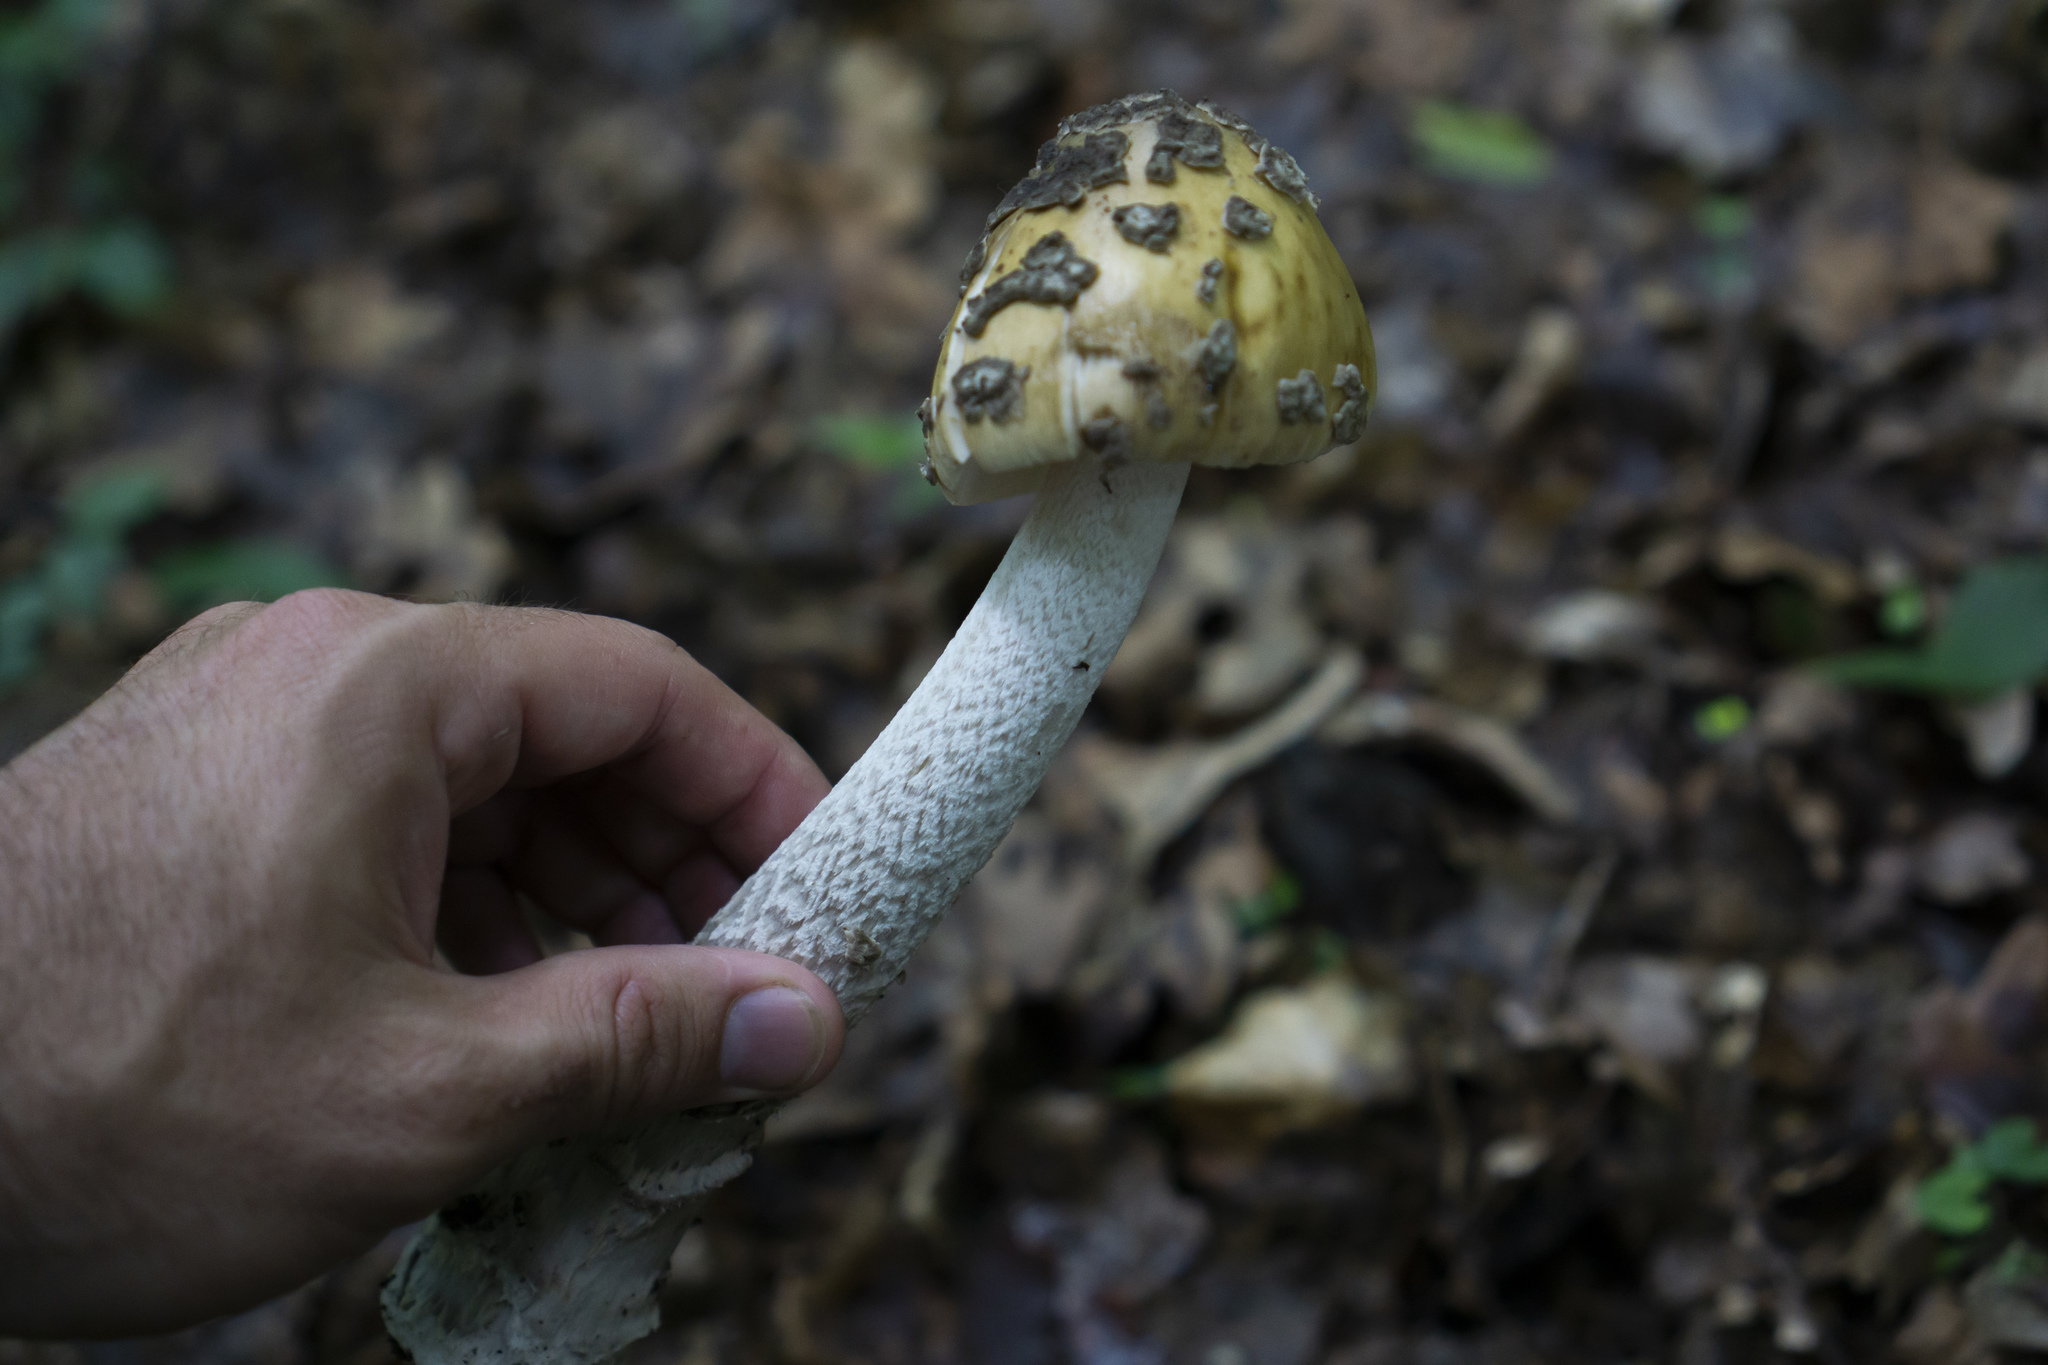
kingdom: Fungi
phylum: Basidiomycota
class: Agaricomycetes
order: Agaricales
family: Amanitaceae
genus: Amanita
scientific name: Amanita ceciliae
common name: Snakeskin grisette
